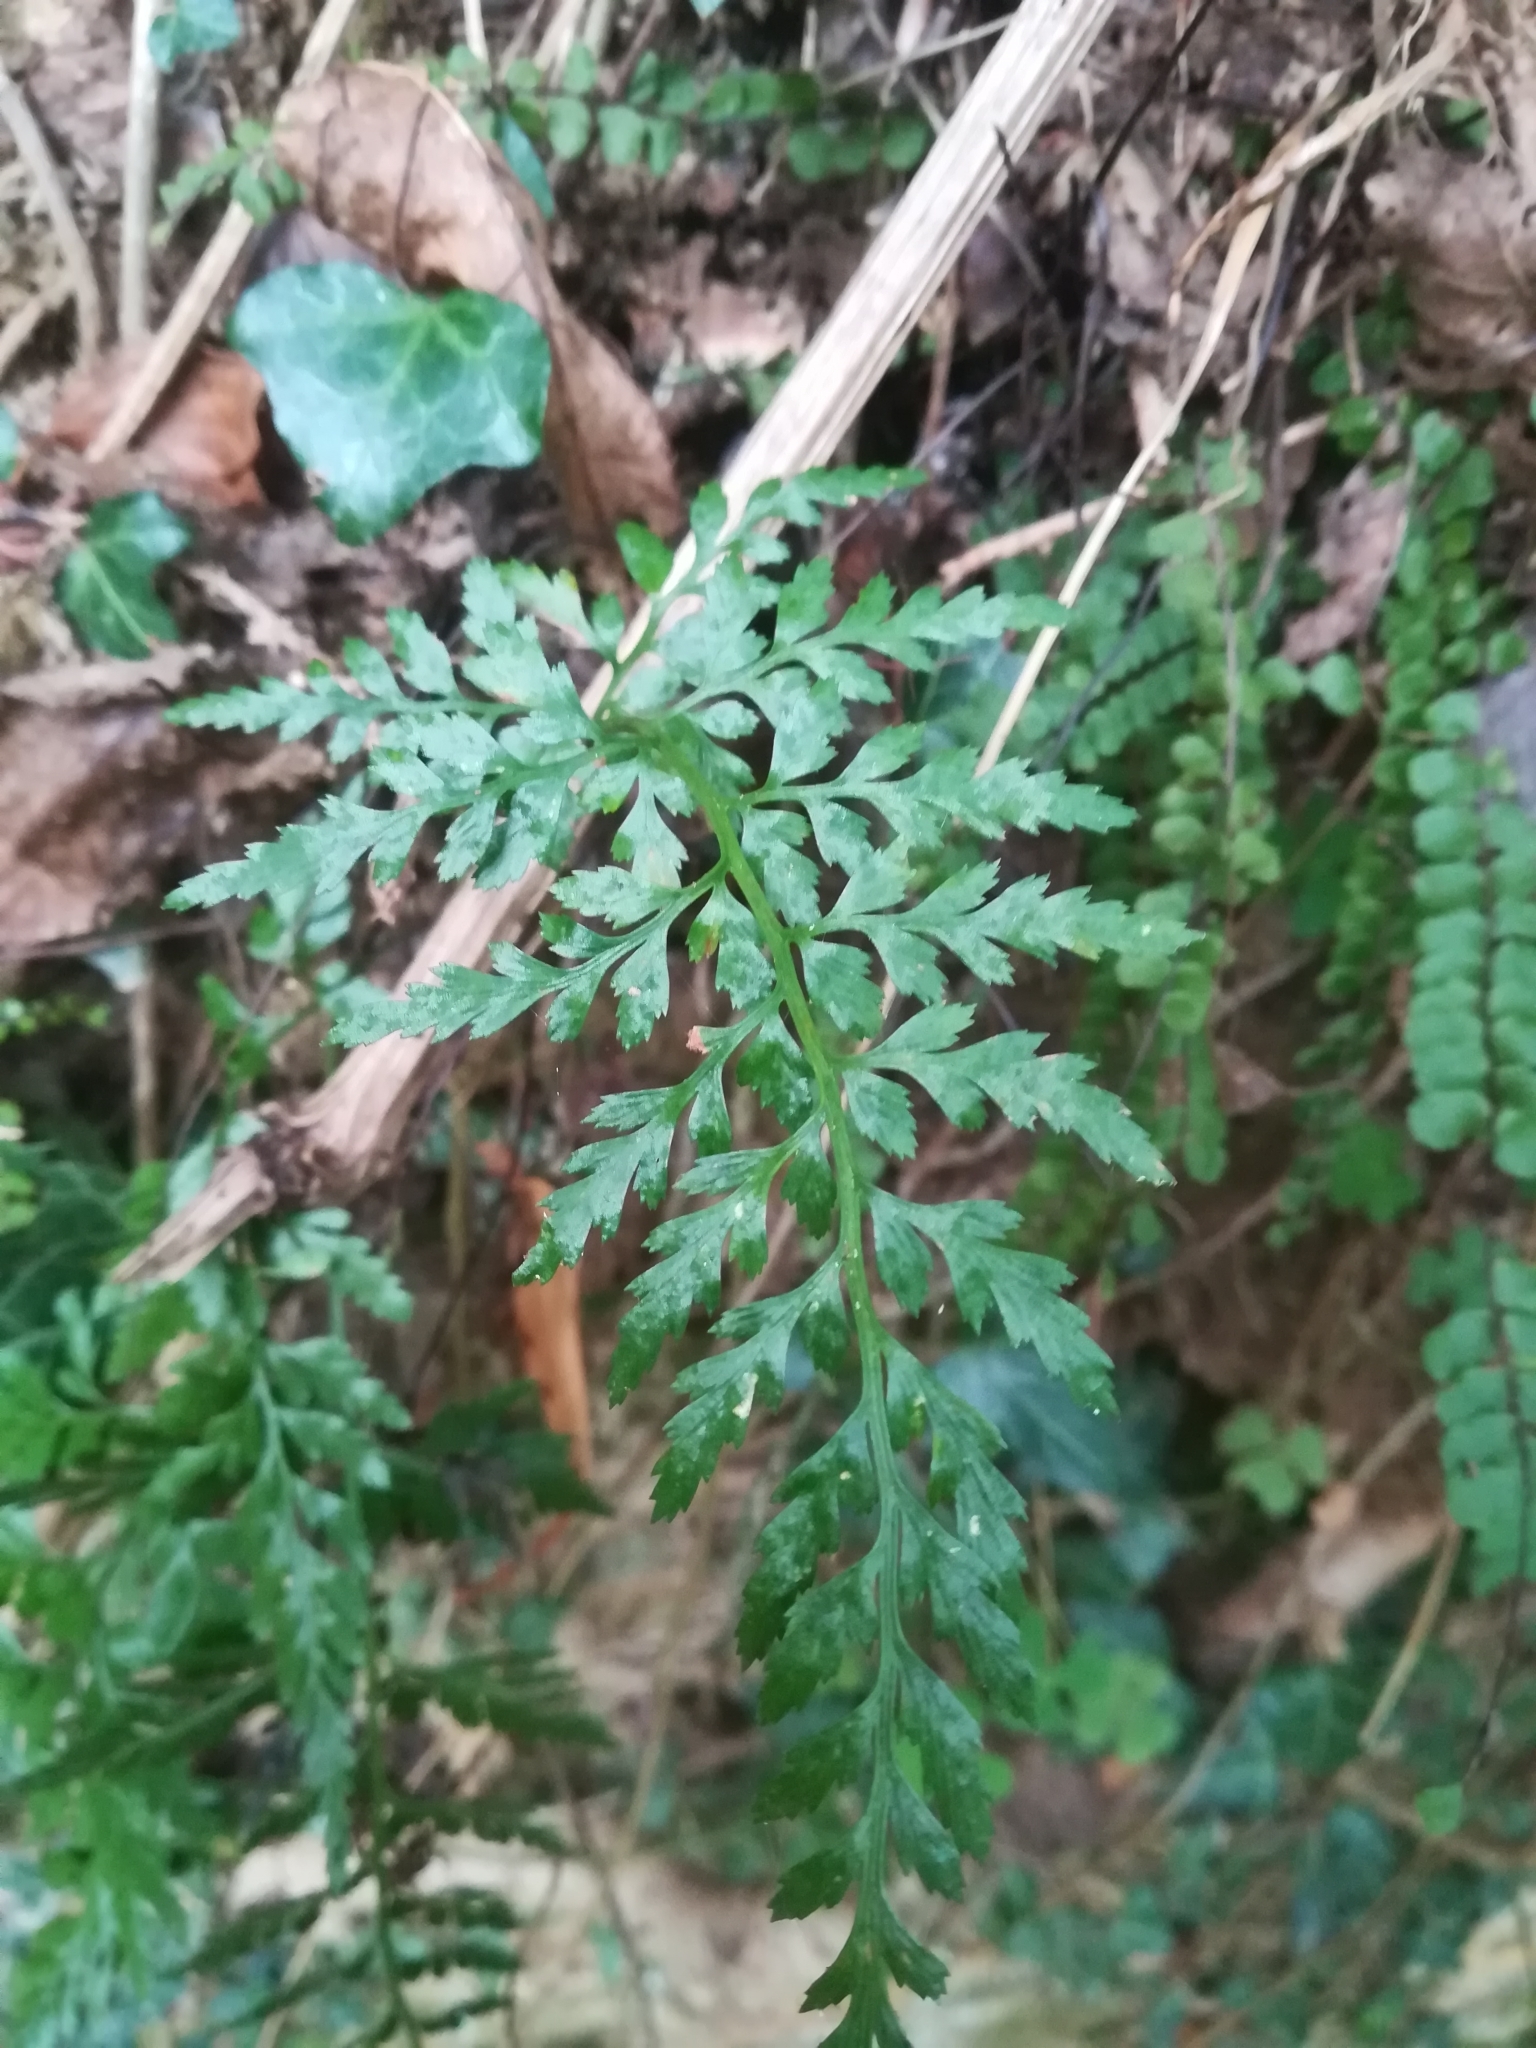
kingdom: Plantae
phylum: Tracheophyta
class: Polypodiopsida
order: Polypodiales
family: Aspleniaceae
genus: Asplenium
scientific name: Asplenium adiantum-nigrum
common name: Black spleenwort
